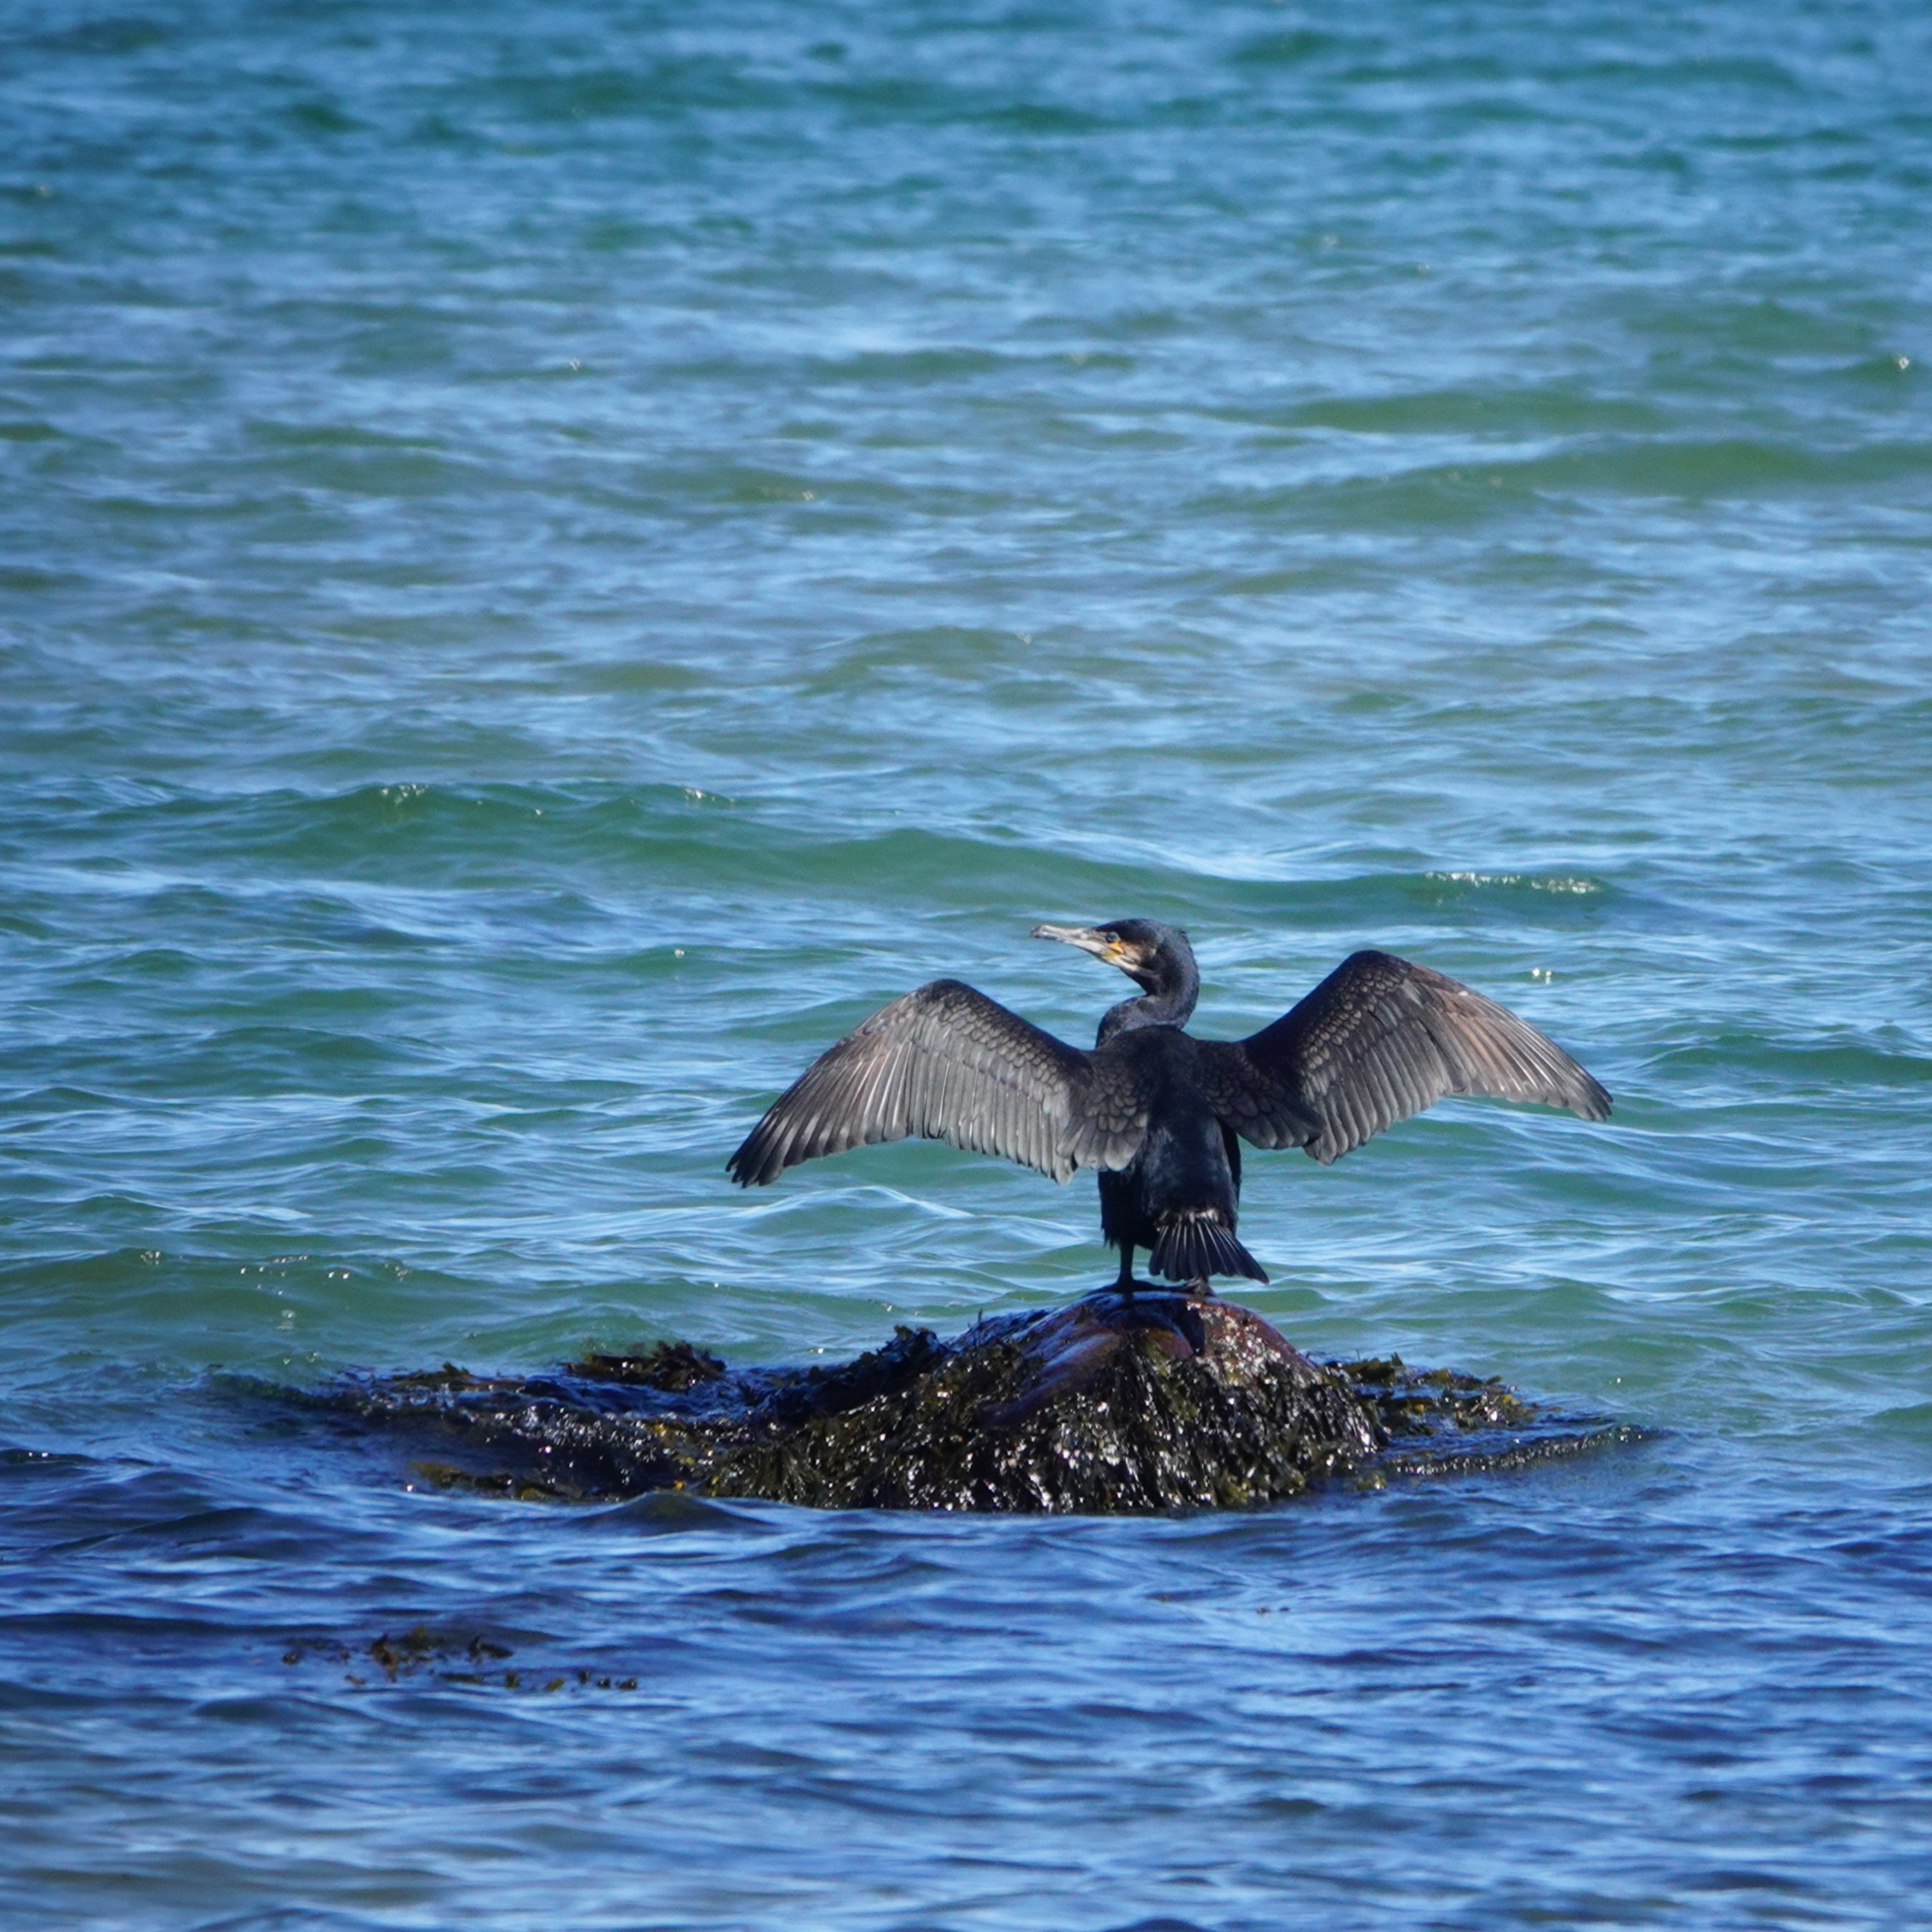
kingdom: Animalia
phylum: Chordata
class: Aves
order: Suliformes
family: Phalacrocoracidae
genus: Phalacrocorax
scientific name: Phalacrocorax carbo
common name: Great cormorant
